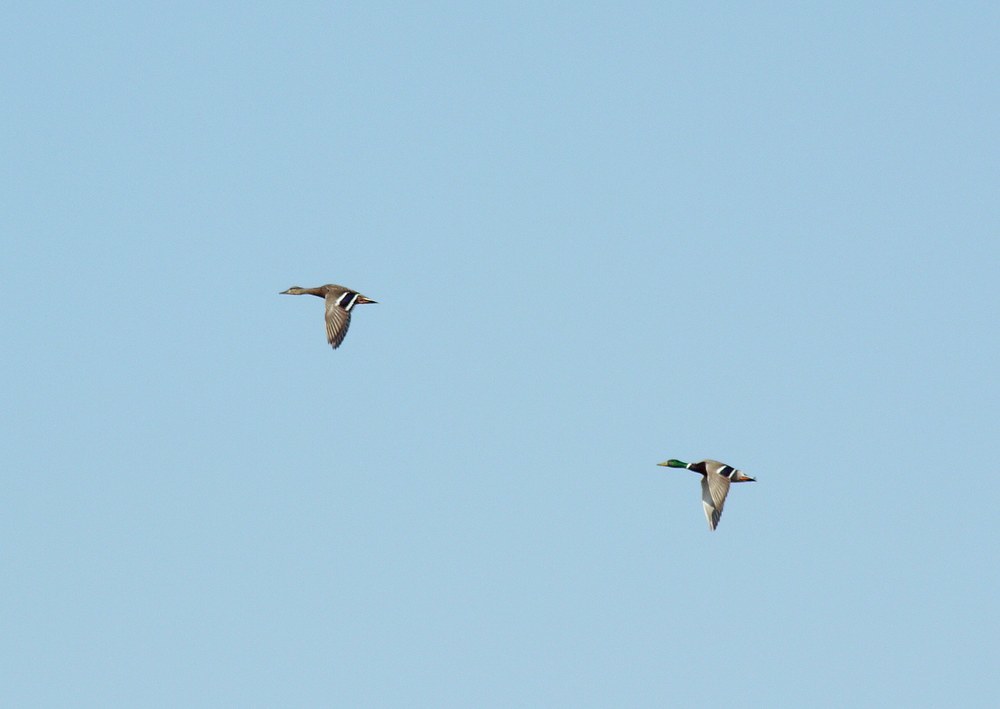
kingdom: Animalia
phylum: Chordata
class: Aves
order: Anseriformes
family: Anatidae
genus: Anas
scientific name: Anas platyrhynchos
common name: Mallard
